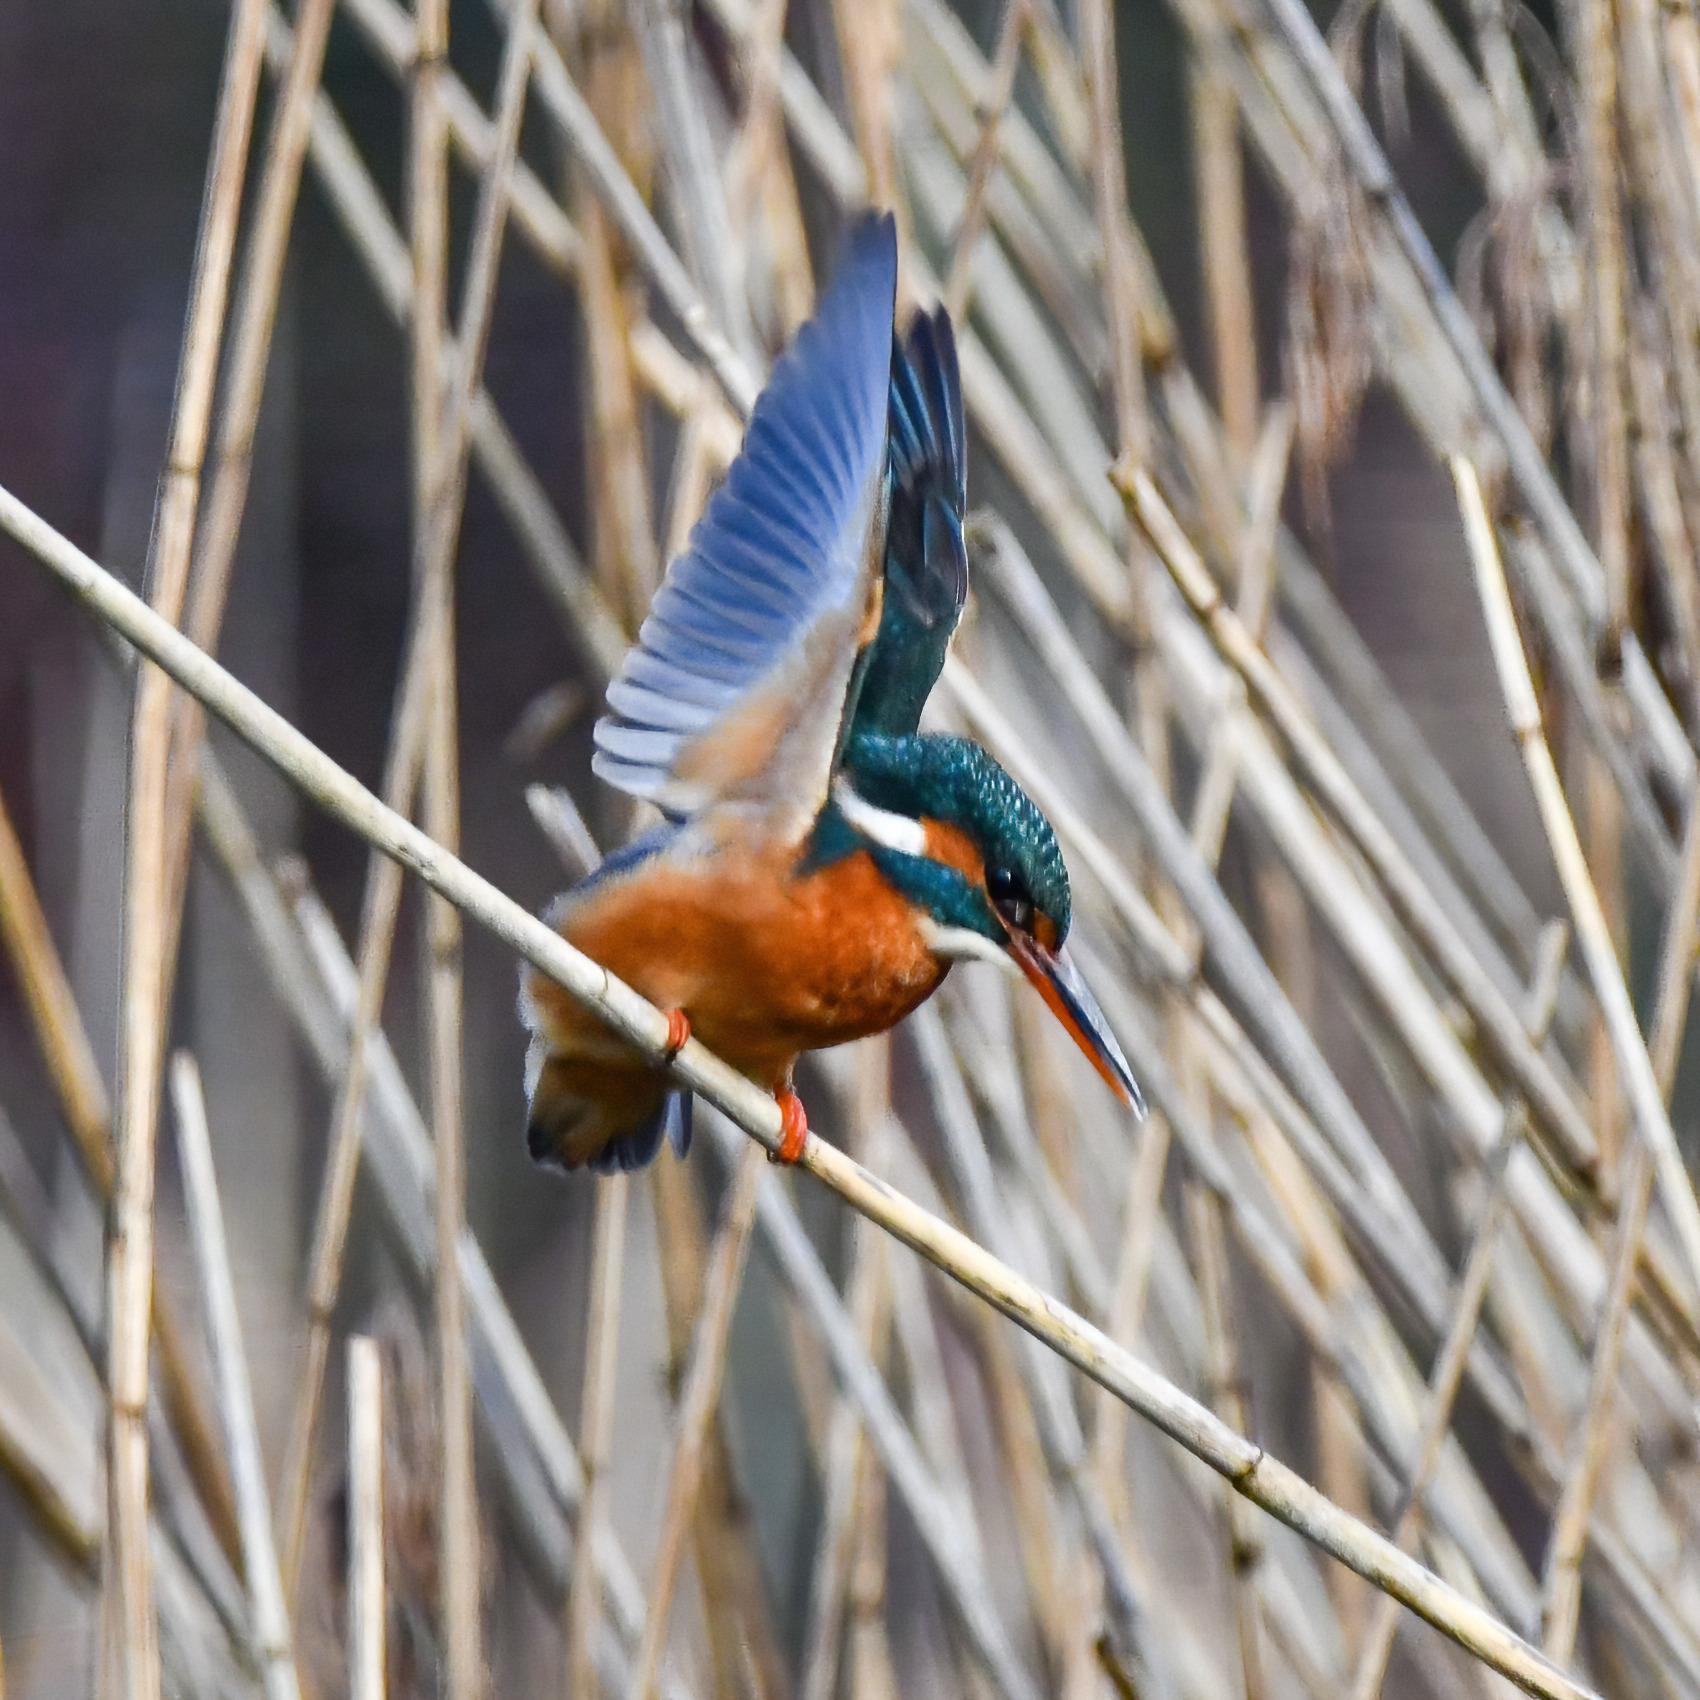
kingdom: Animalia
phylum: Chordata
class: Aves
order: Coraciiformes
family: Alcedinidae
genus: Alcedo
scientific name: Alcedo atthis
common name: Common kingfisher
